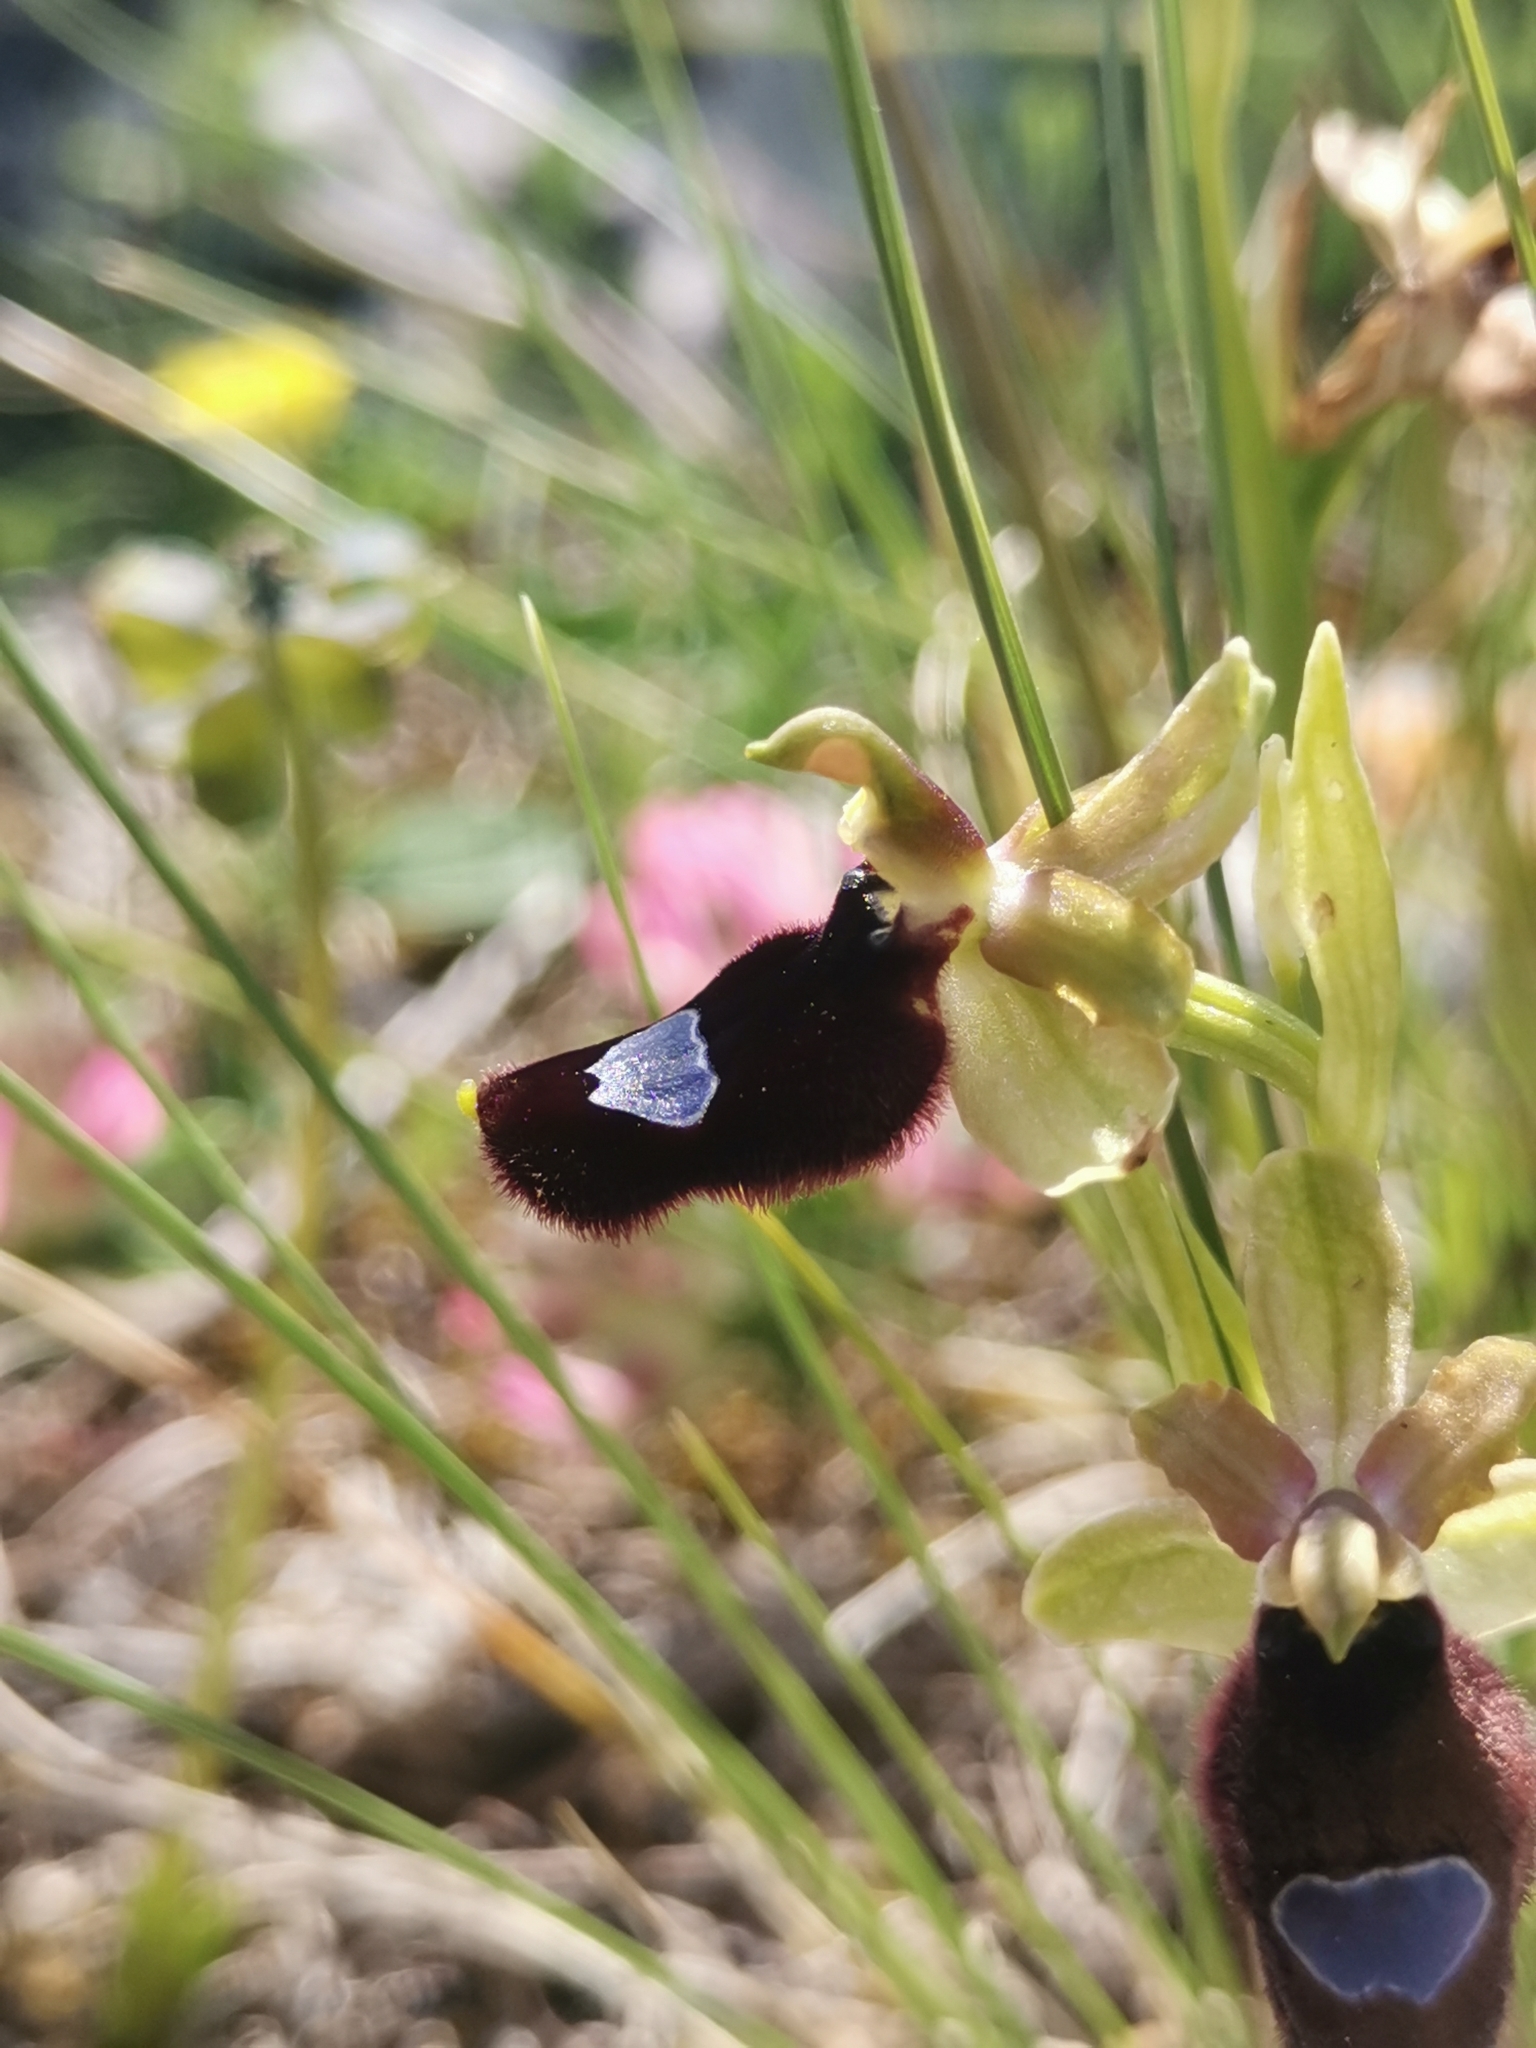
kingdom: Plantae
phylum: Tracheophyta
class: Liliopsida
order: Asparagales
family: Orchidaceae
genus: Ophrys
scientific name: Ophrys flavicans
